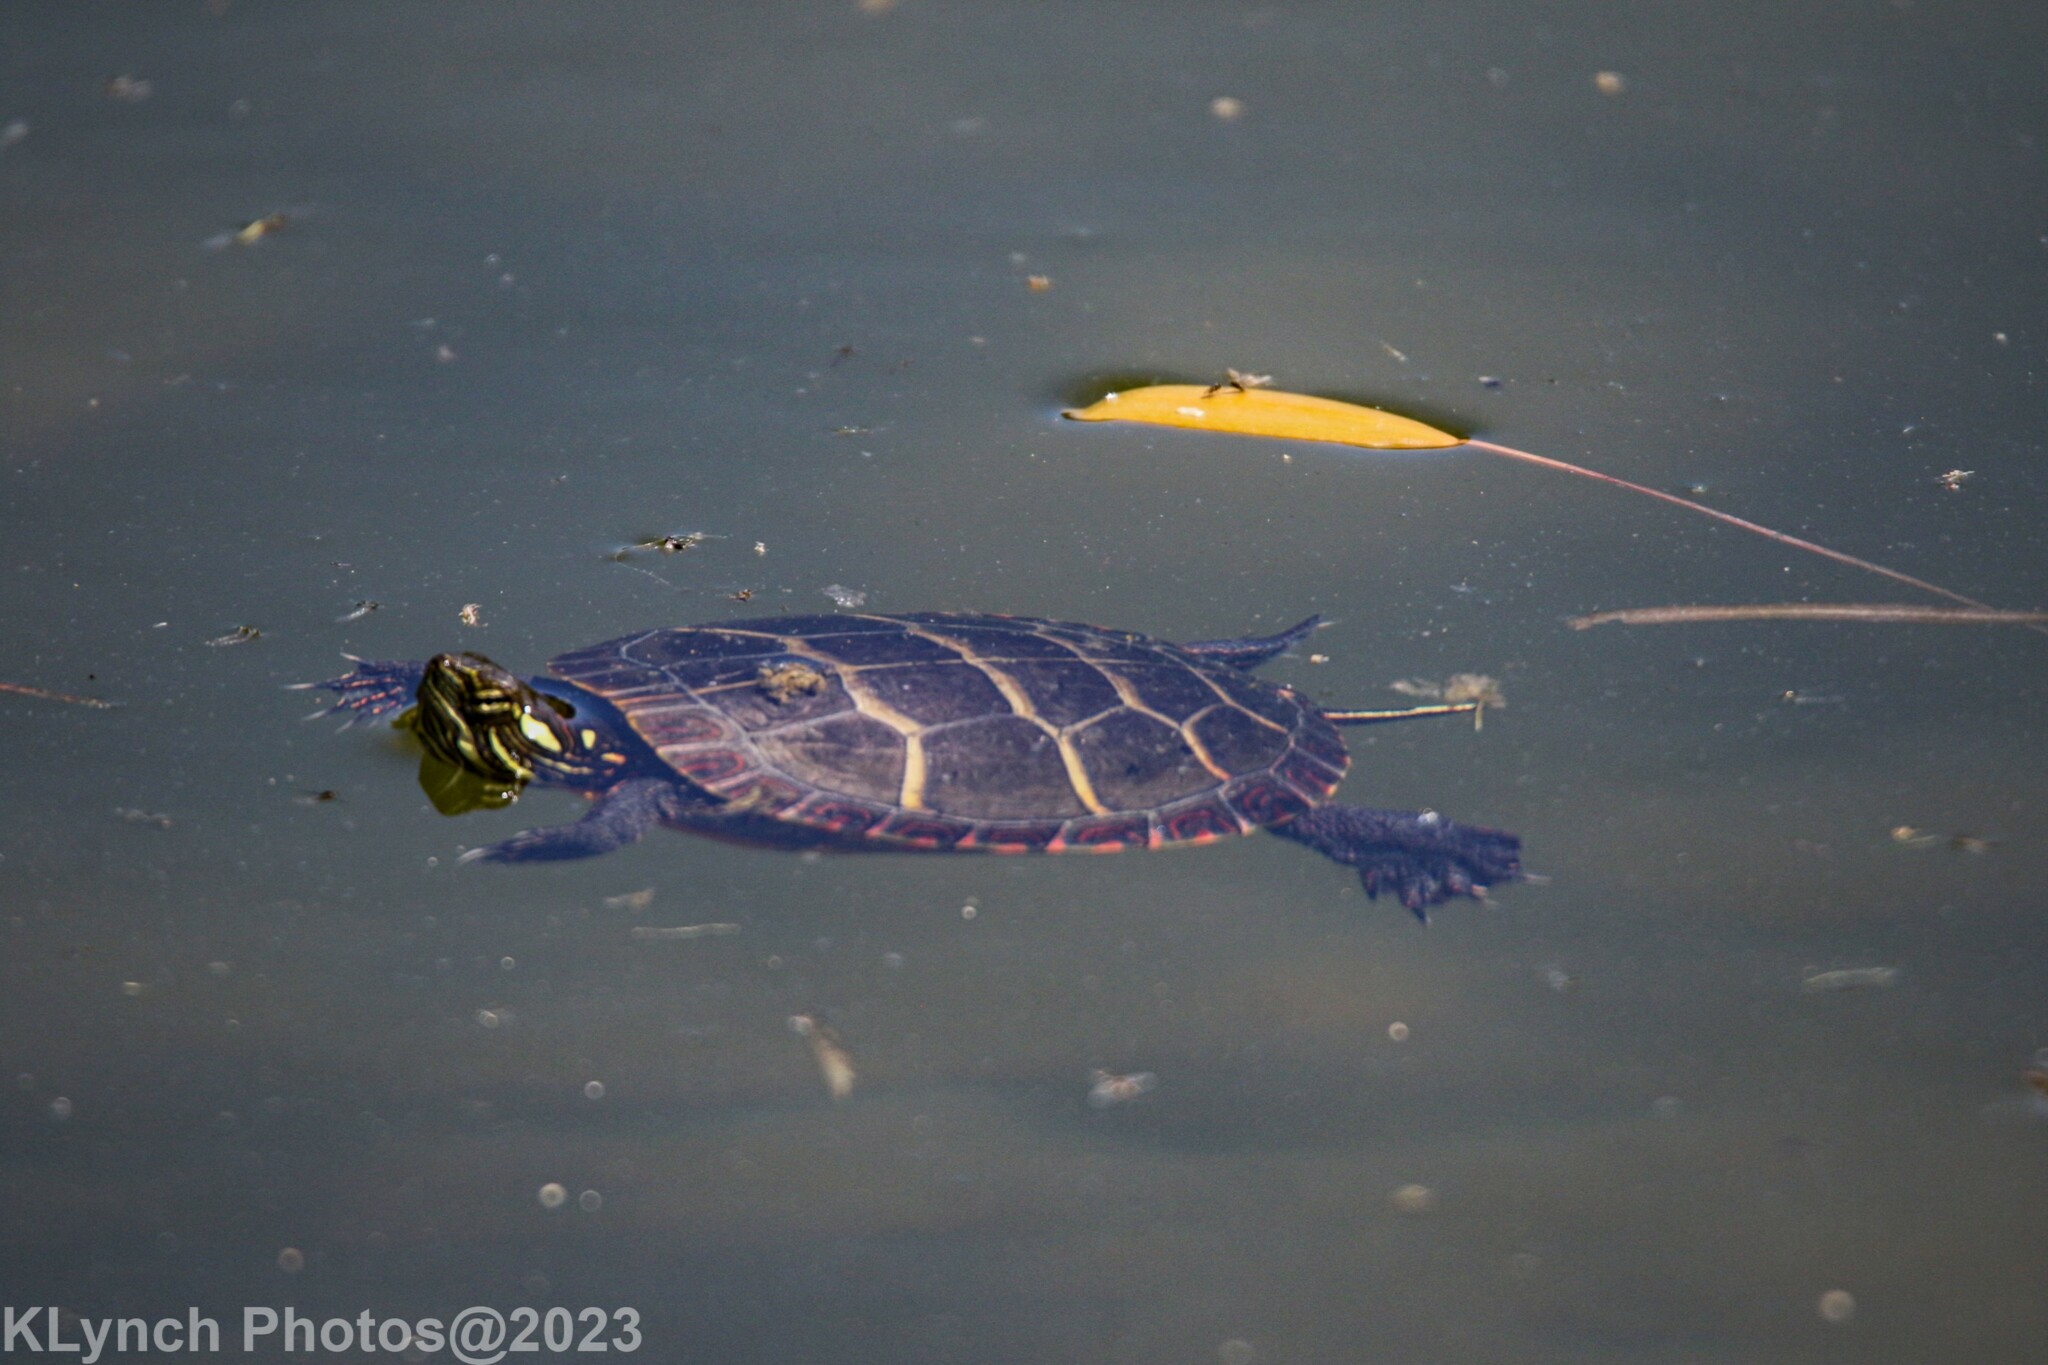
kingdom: Animalia
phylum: Chordata
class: Testudines
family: Emydidae
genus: Chrysemys
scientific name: Chrysemys picta
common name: Painted turtle
